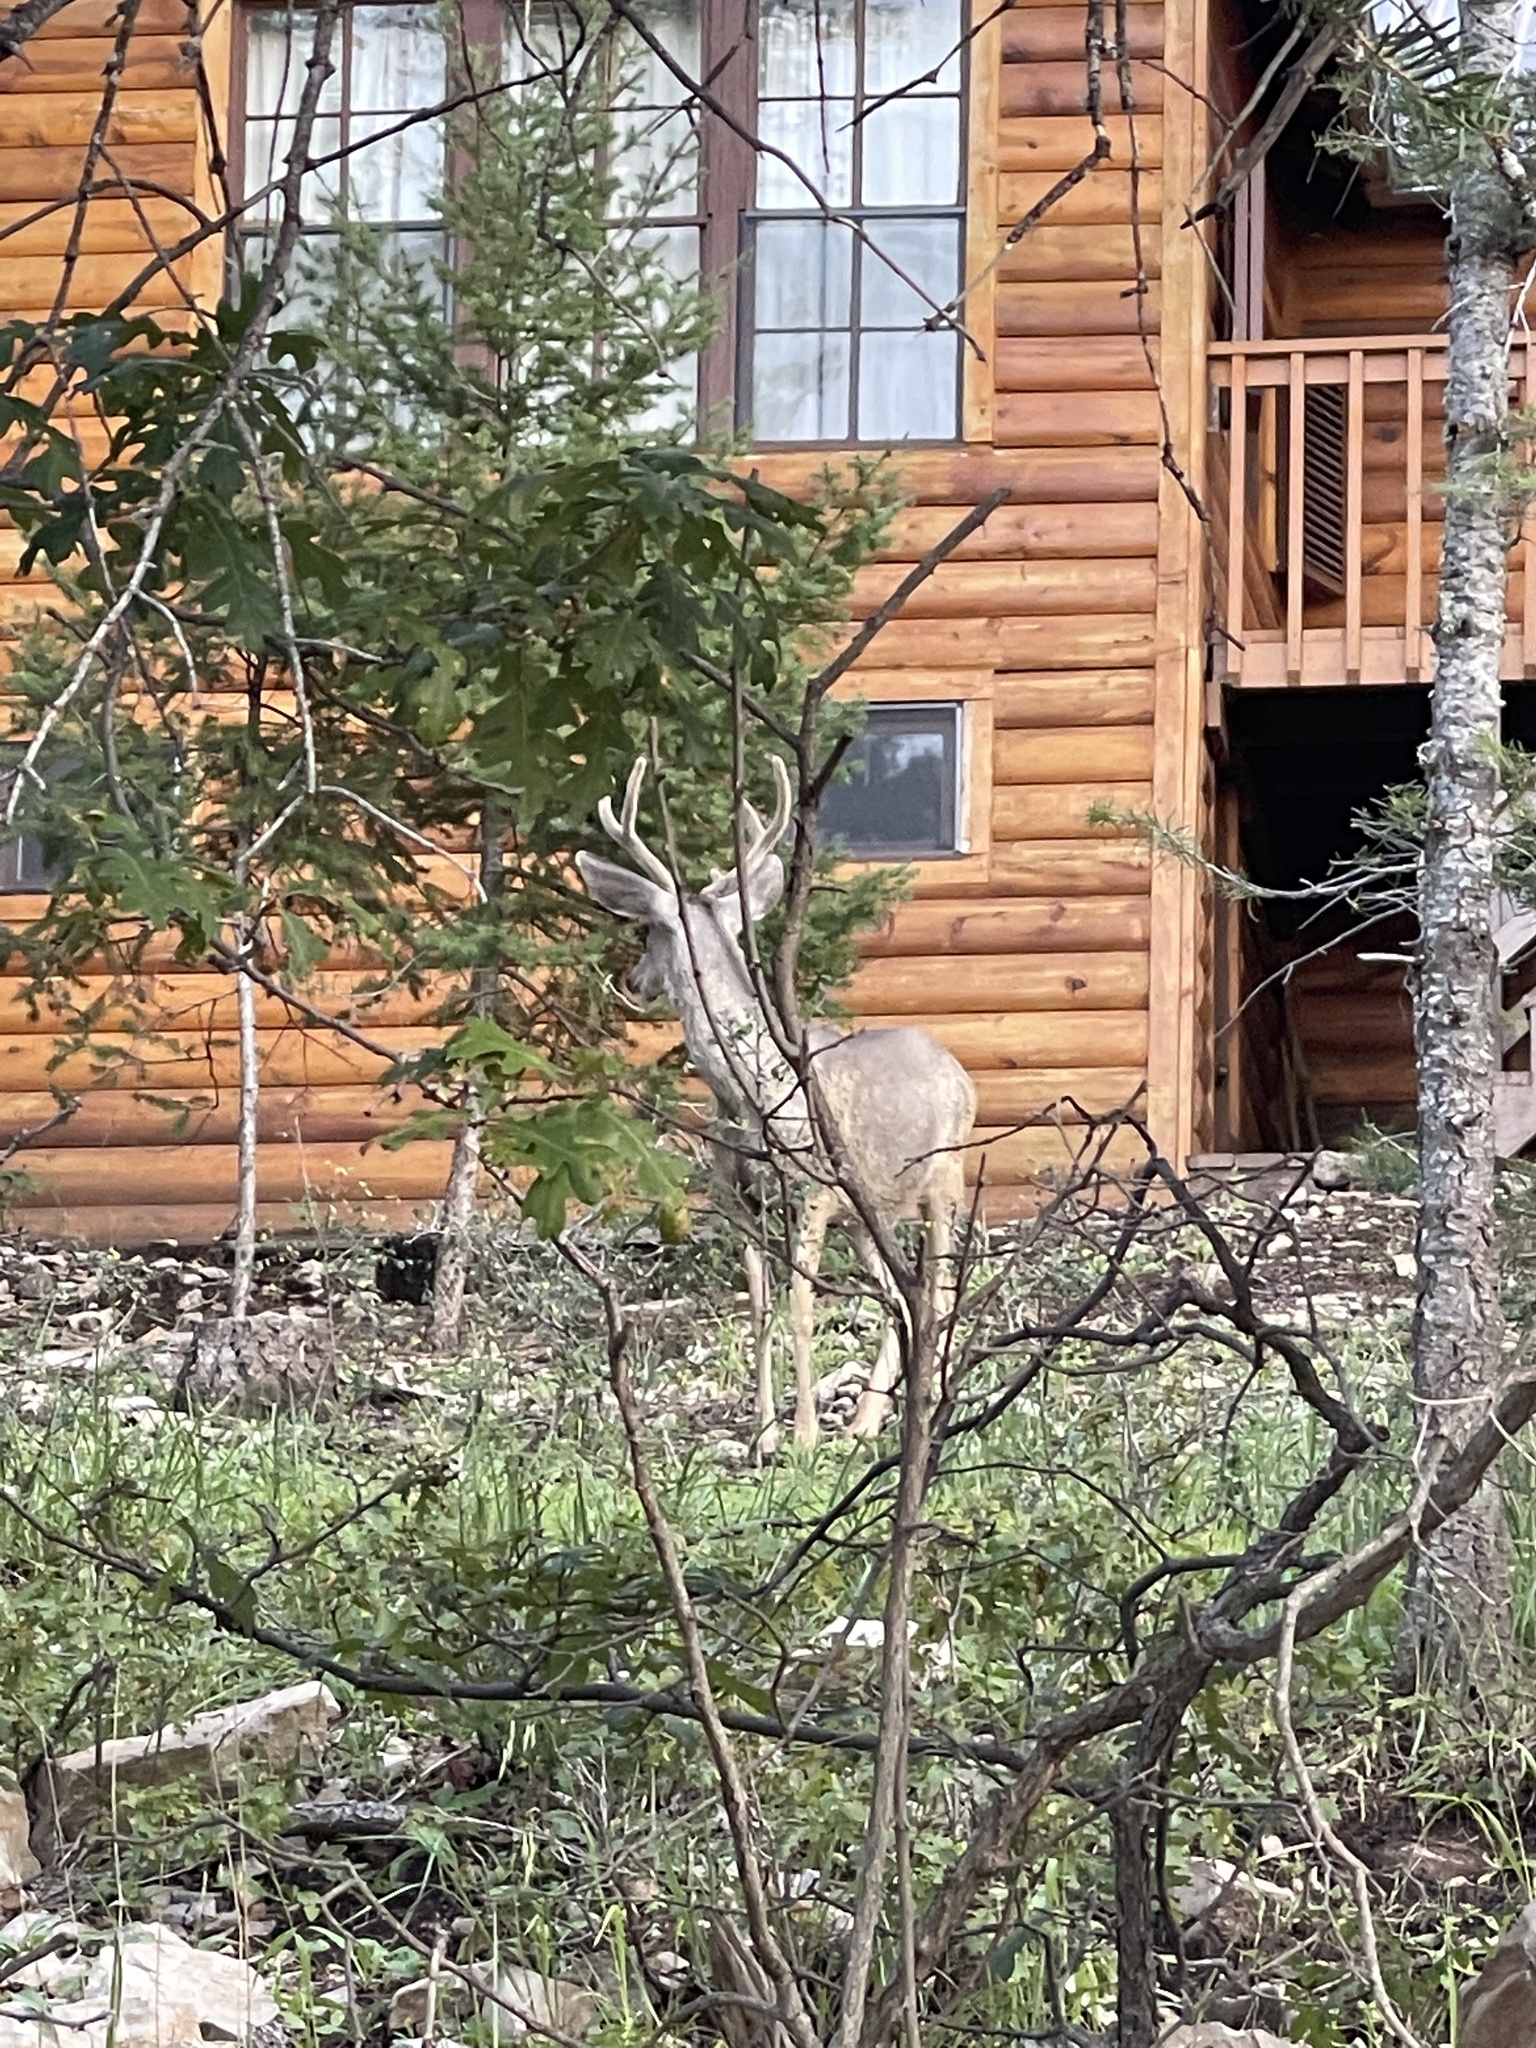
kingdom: Animalia
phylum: Chordata
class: Mammalia
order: Artiodactyla
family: Cervidae
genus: Odocoileus
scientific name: Odocoileus hemionus
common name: Mule deer
